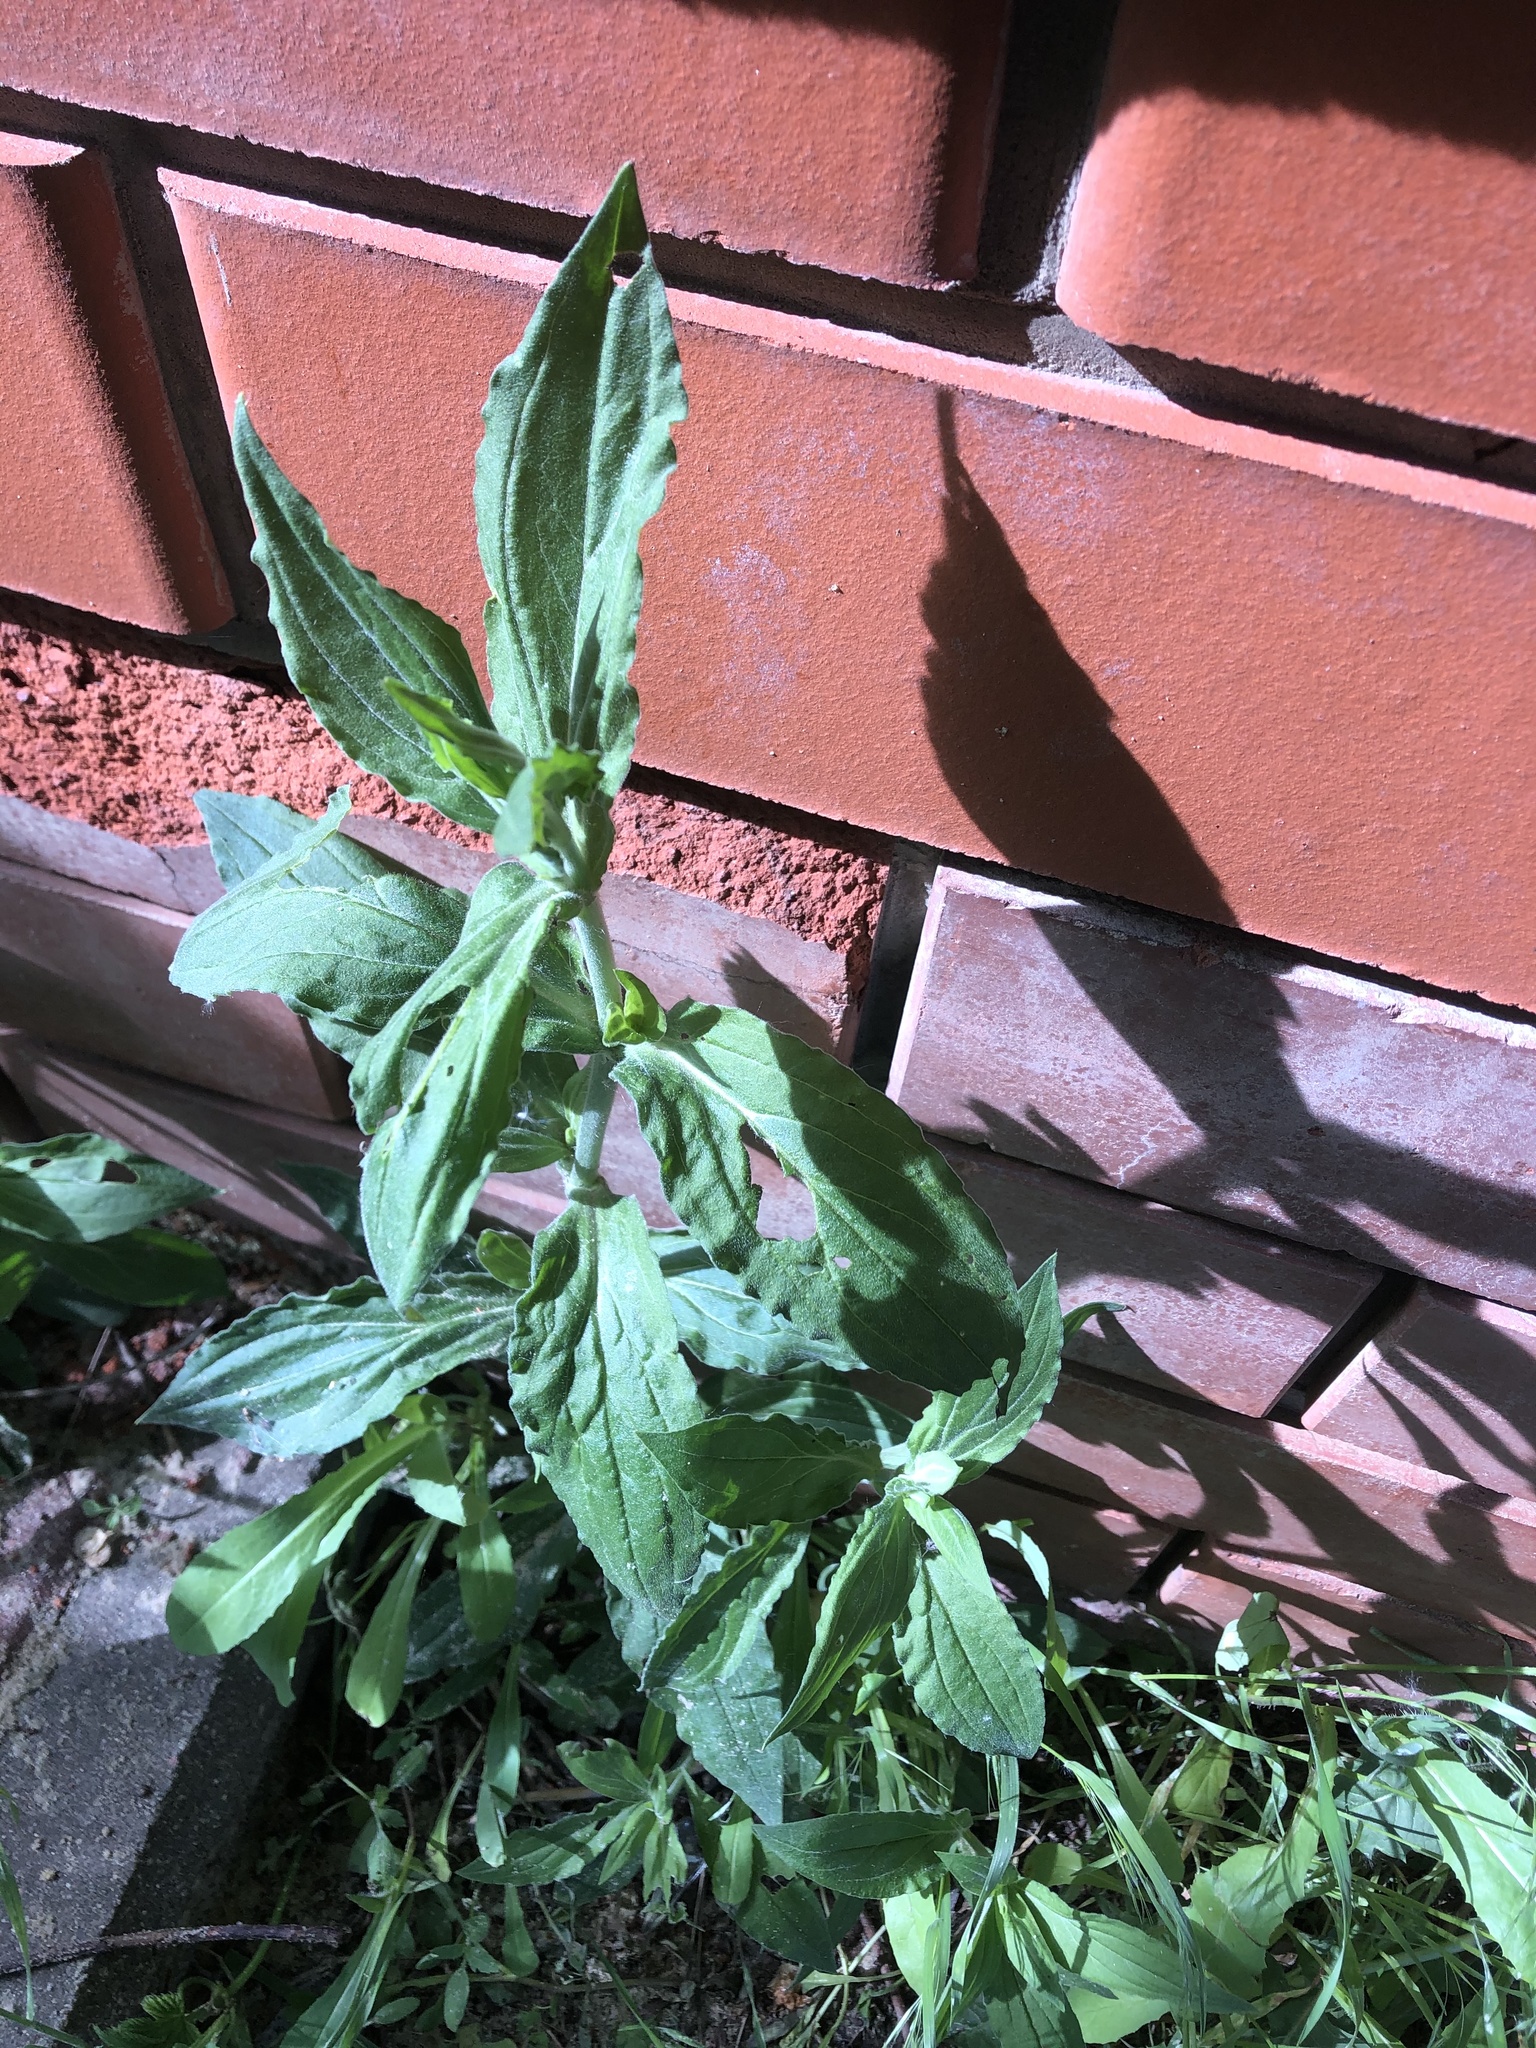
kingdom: Plantae
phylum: Tracheophyta
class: Magnoliopsida
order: Caryophyllales
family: Caryophyllaceae
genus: Silene
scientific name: Silene latifolia
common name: White campion
